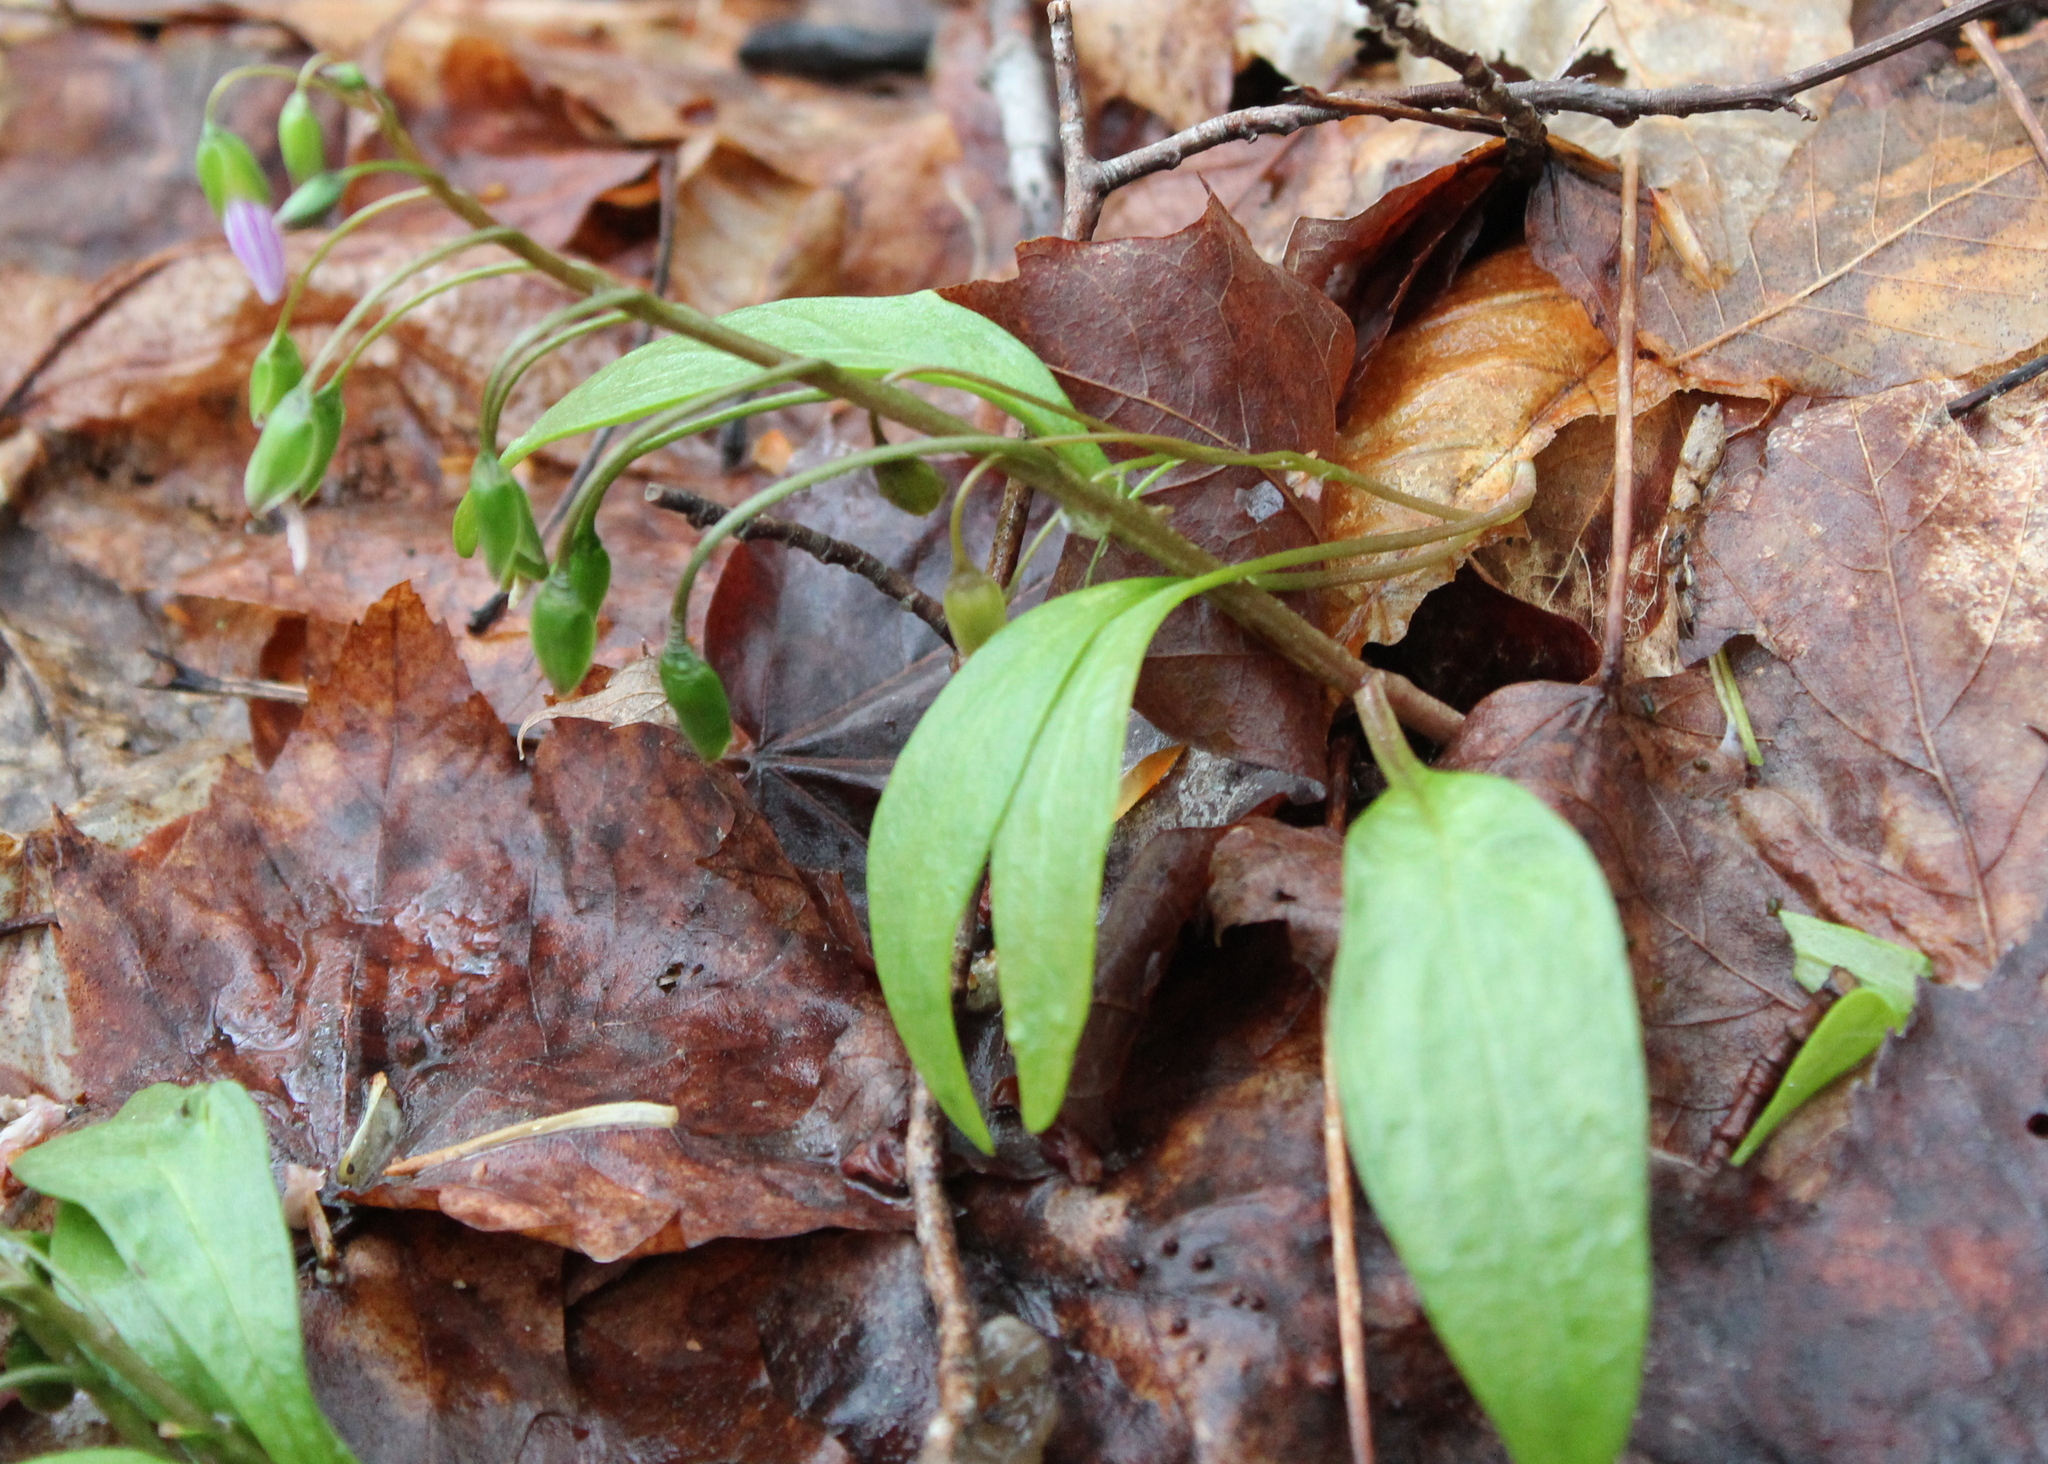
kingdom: Plantae
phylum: Tracheophyta
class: Magnoliopsida
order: Caryophyllales
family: Montiaceae
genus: Claytonia
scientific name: Claytonia caroliniana
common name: Carolina spring beauty
